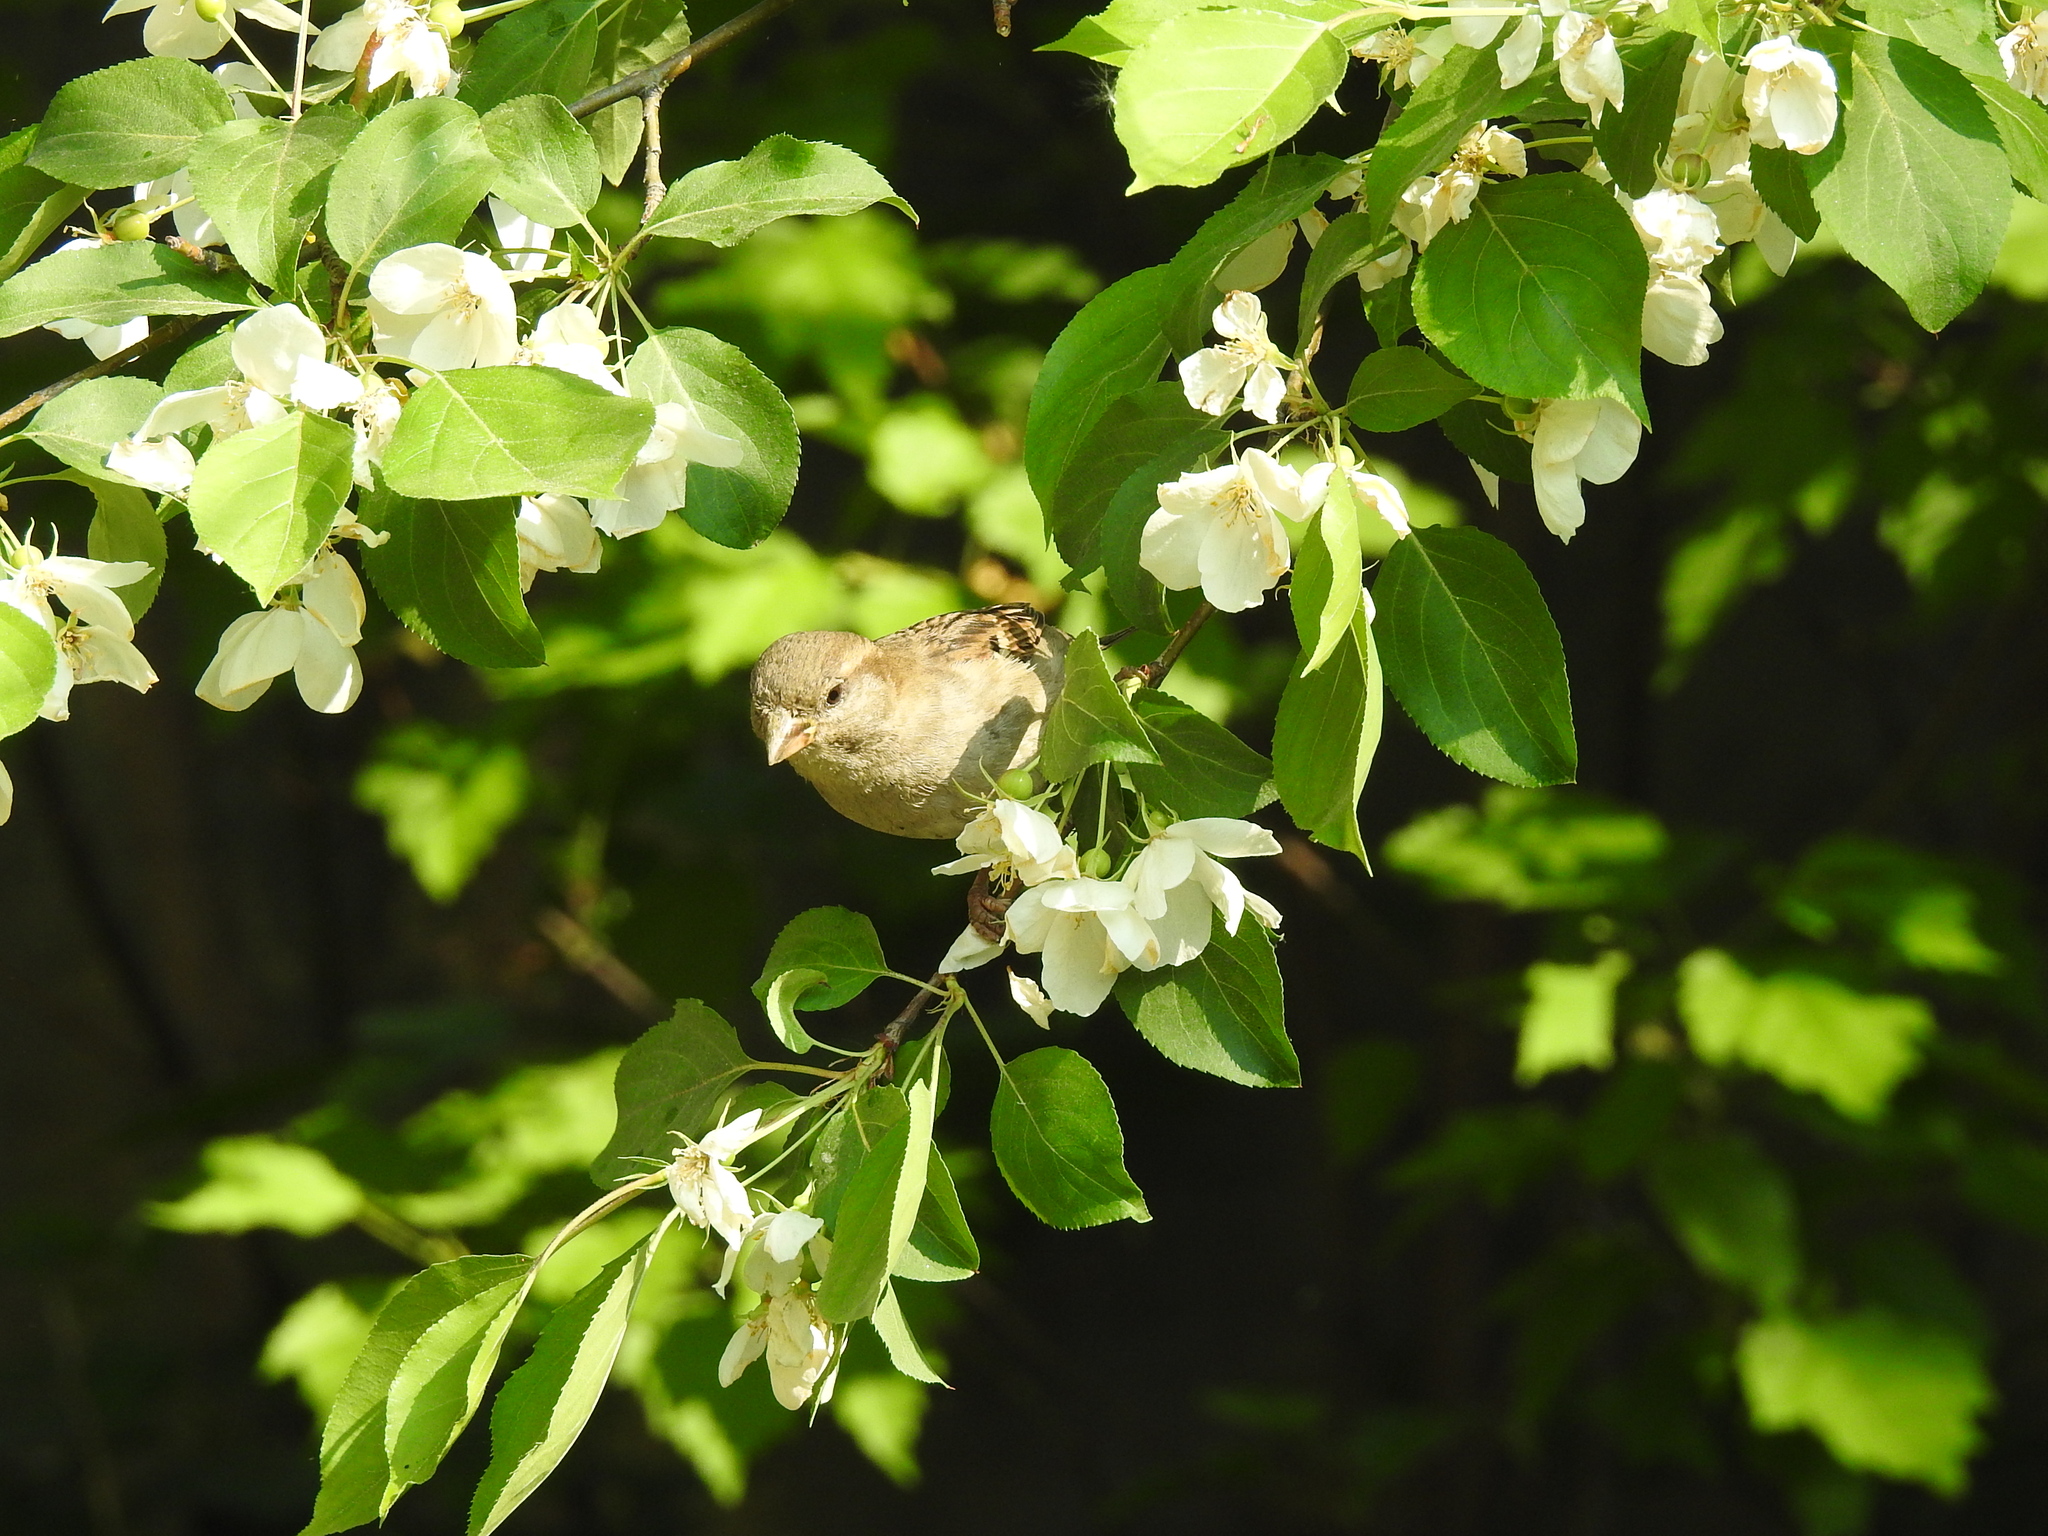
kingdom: Animalia
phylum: Chordata
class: Aves
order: Passeriformes
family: Passeridae
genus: Passer
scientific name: Passer domesticus
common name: House sparrow
